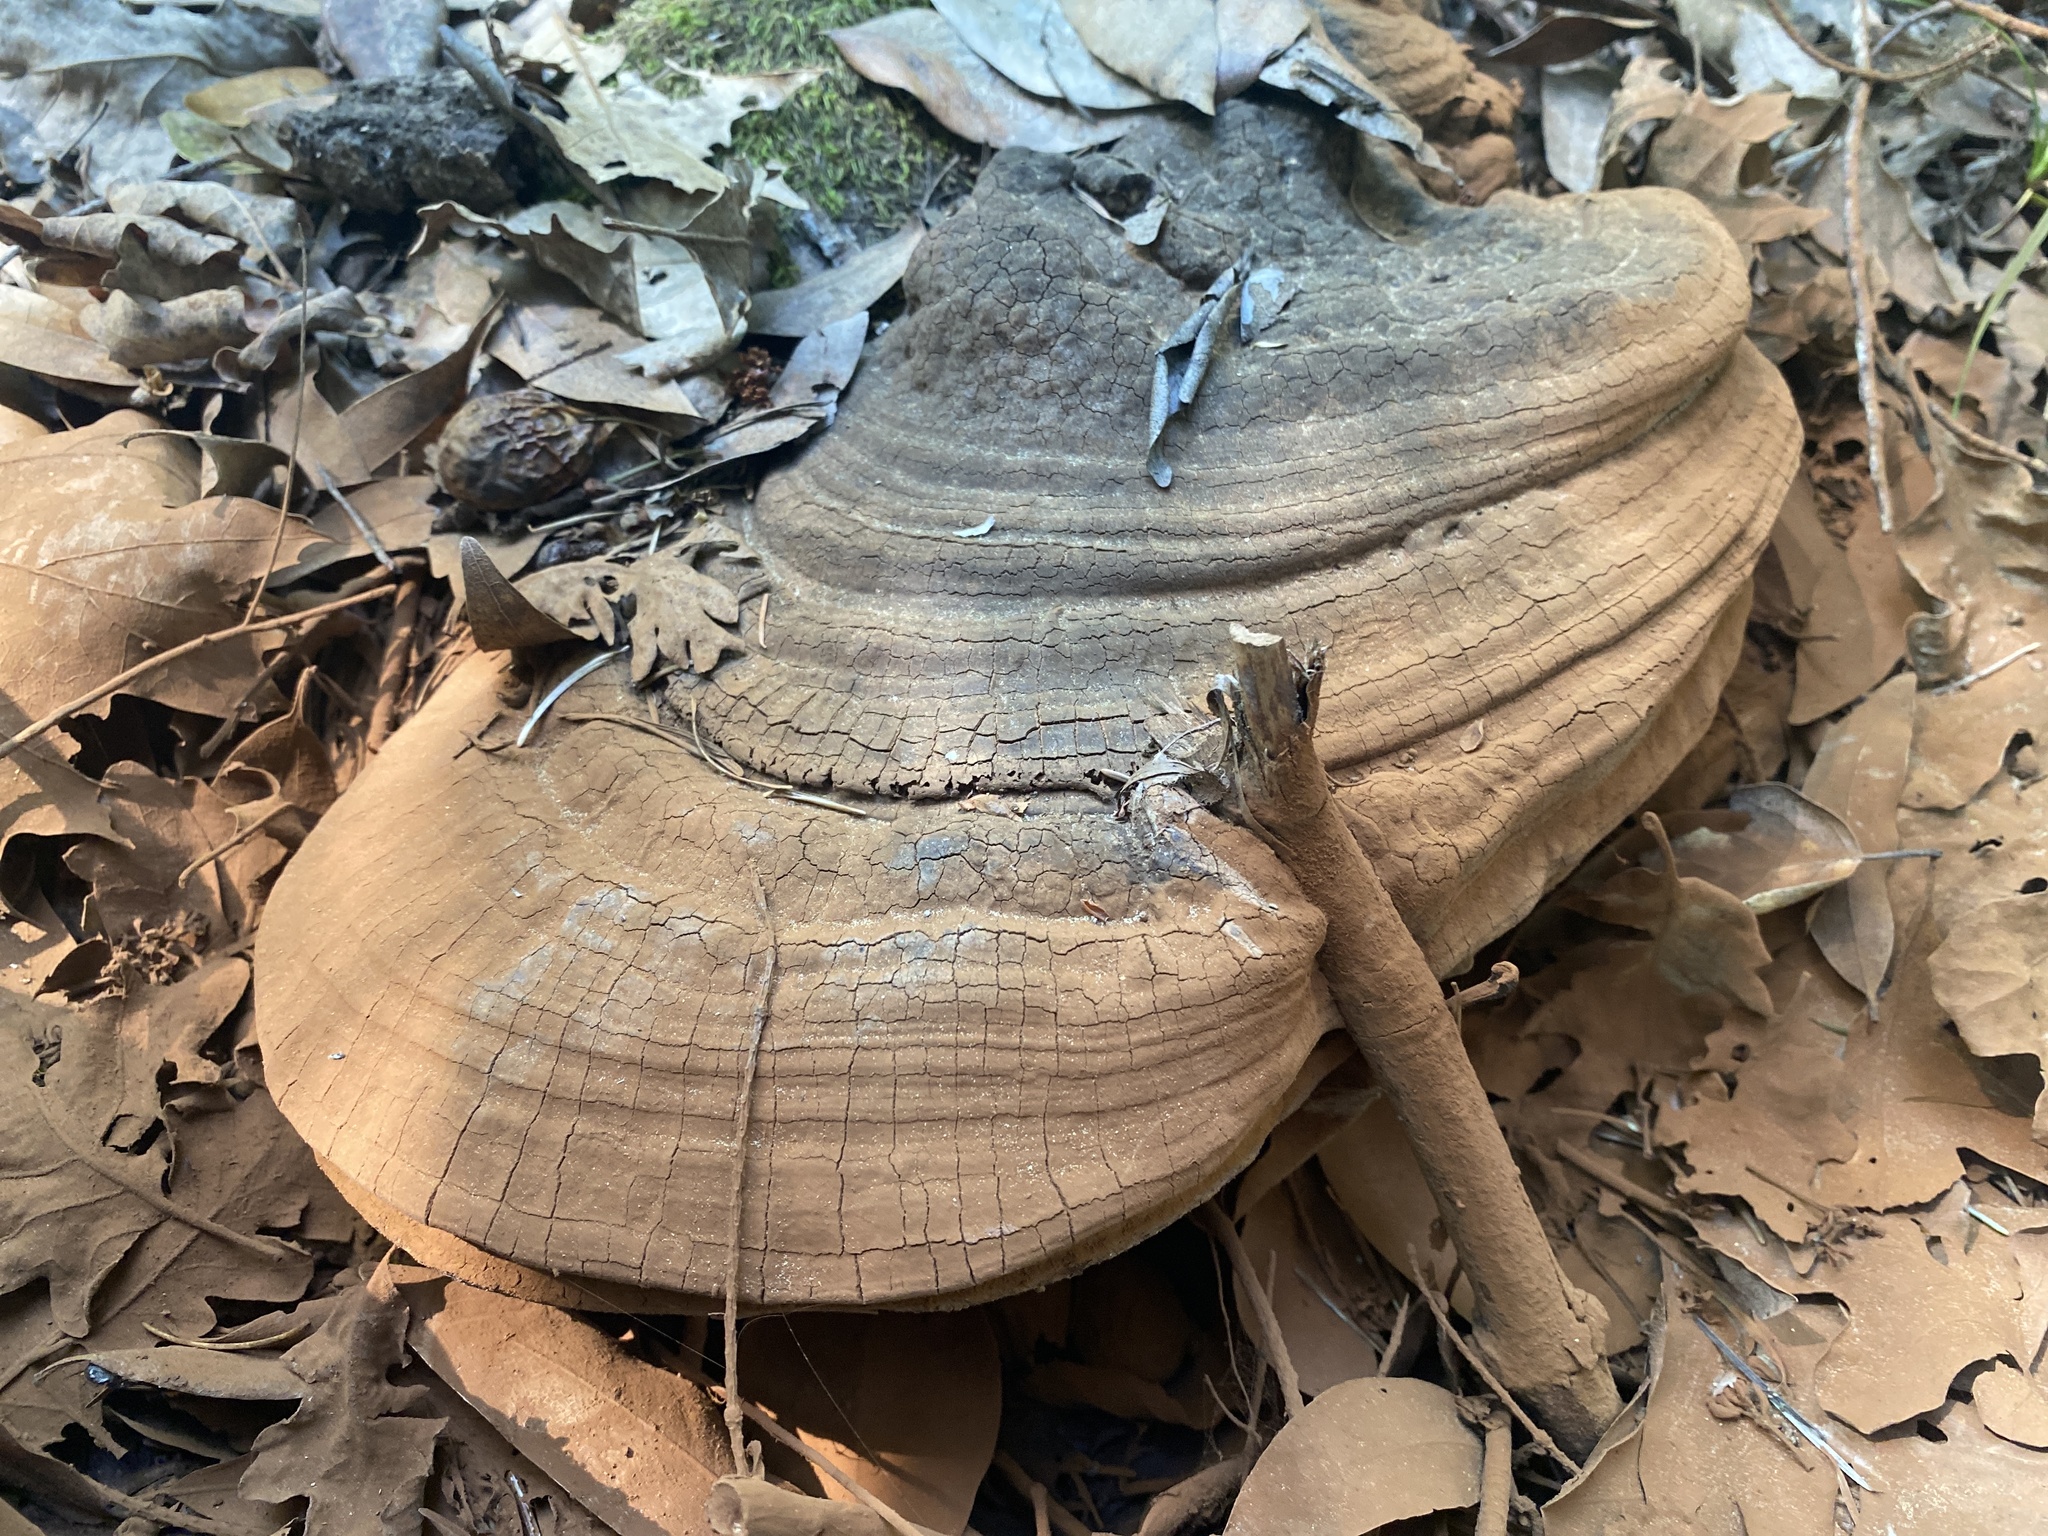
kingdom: Fungi
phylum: Basidiomycota
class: Agaricomycetes
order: Polyporales
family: Polyporaceae
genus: Ganoderma
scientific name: Ganoderma brownii
